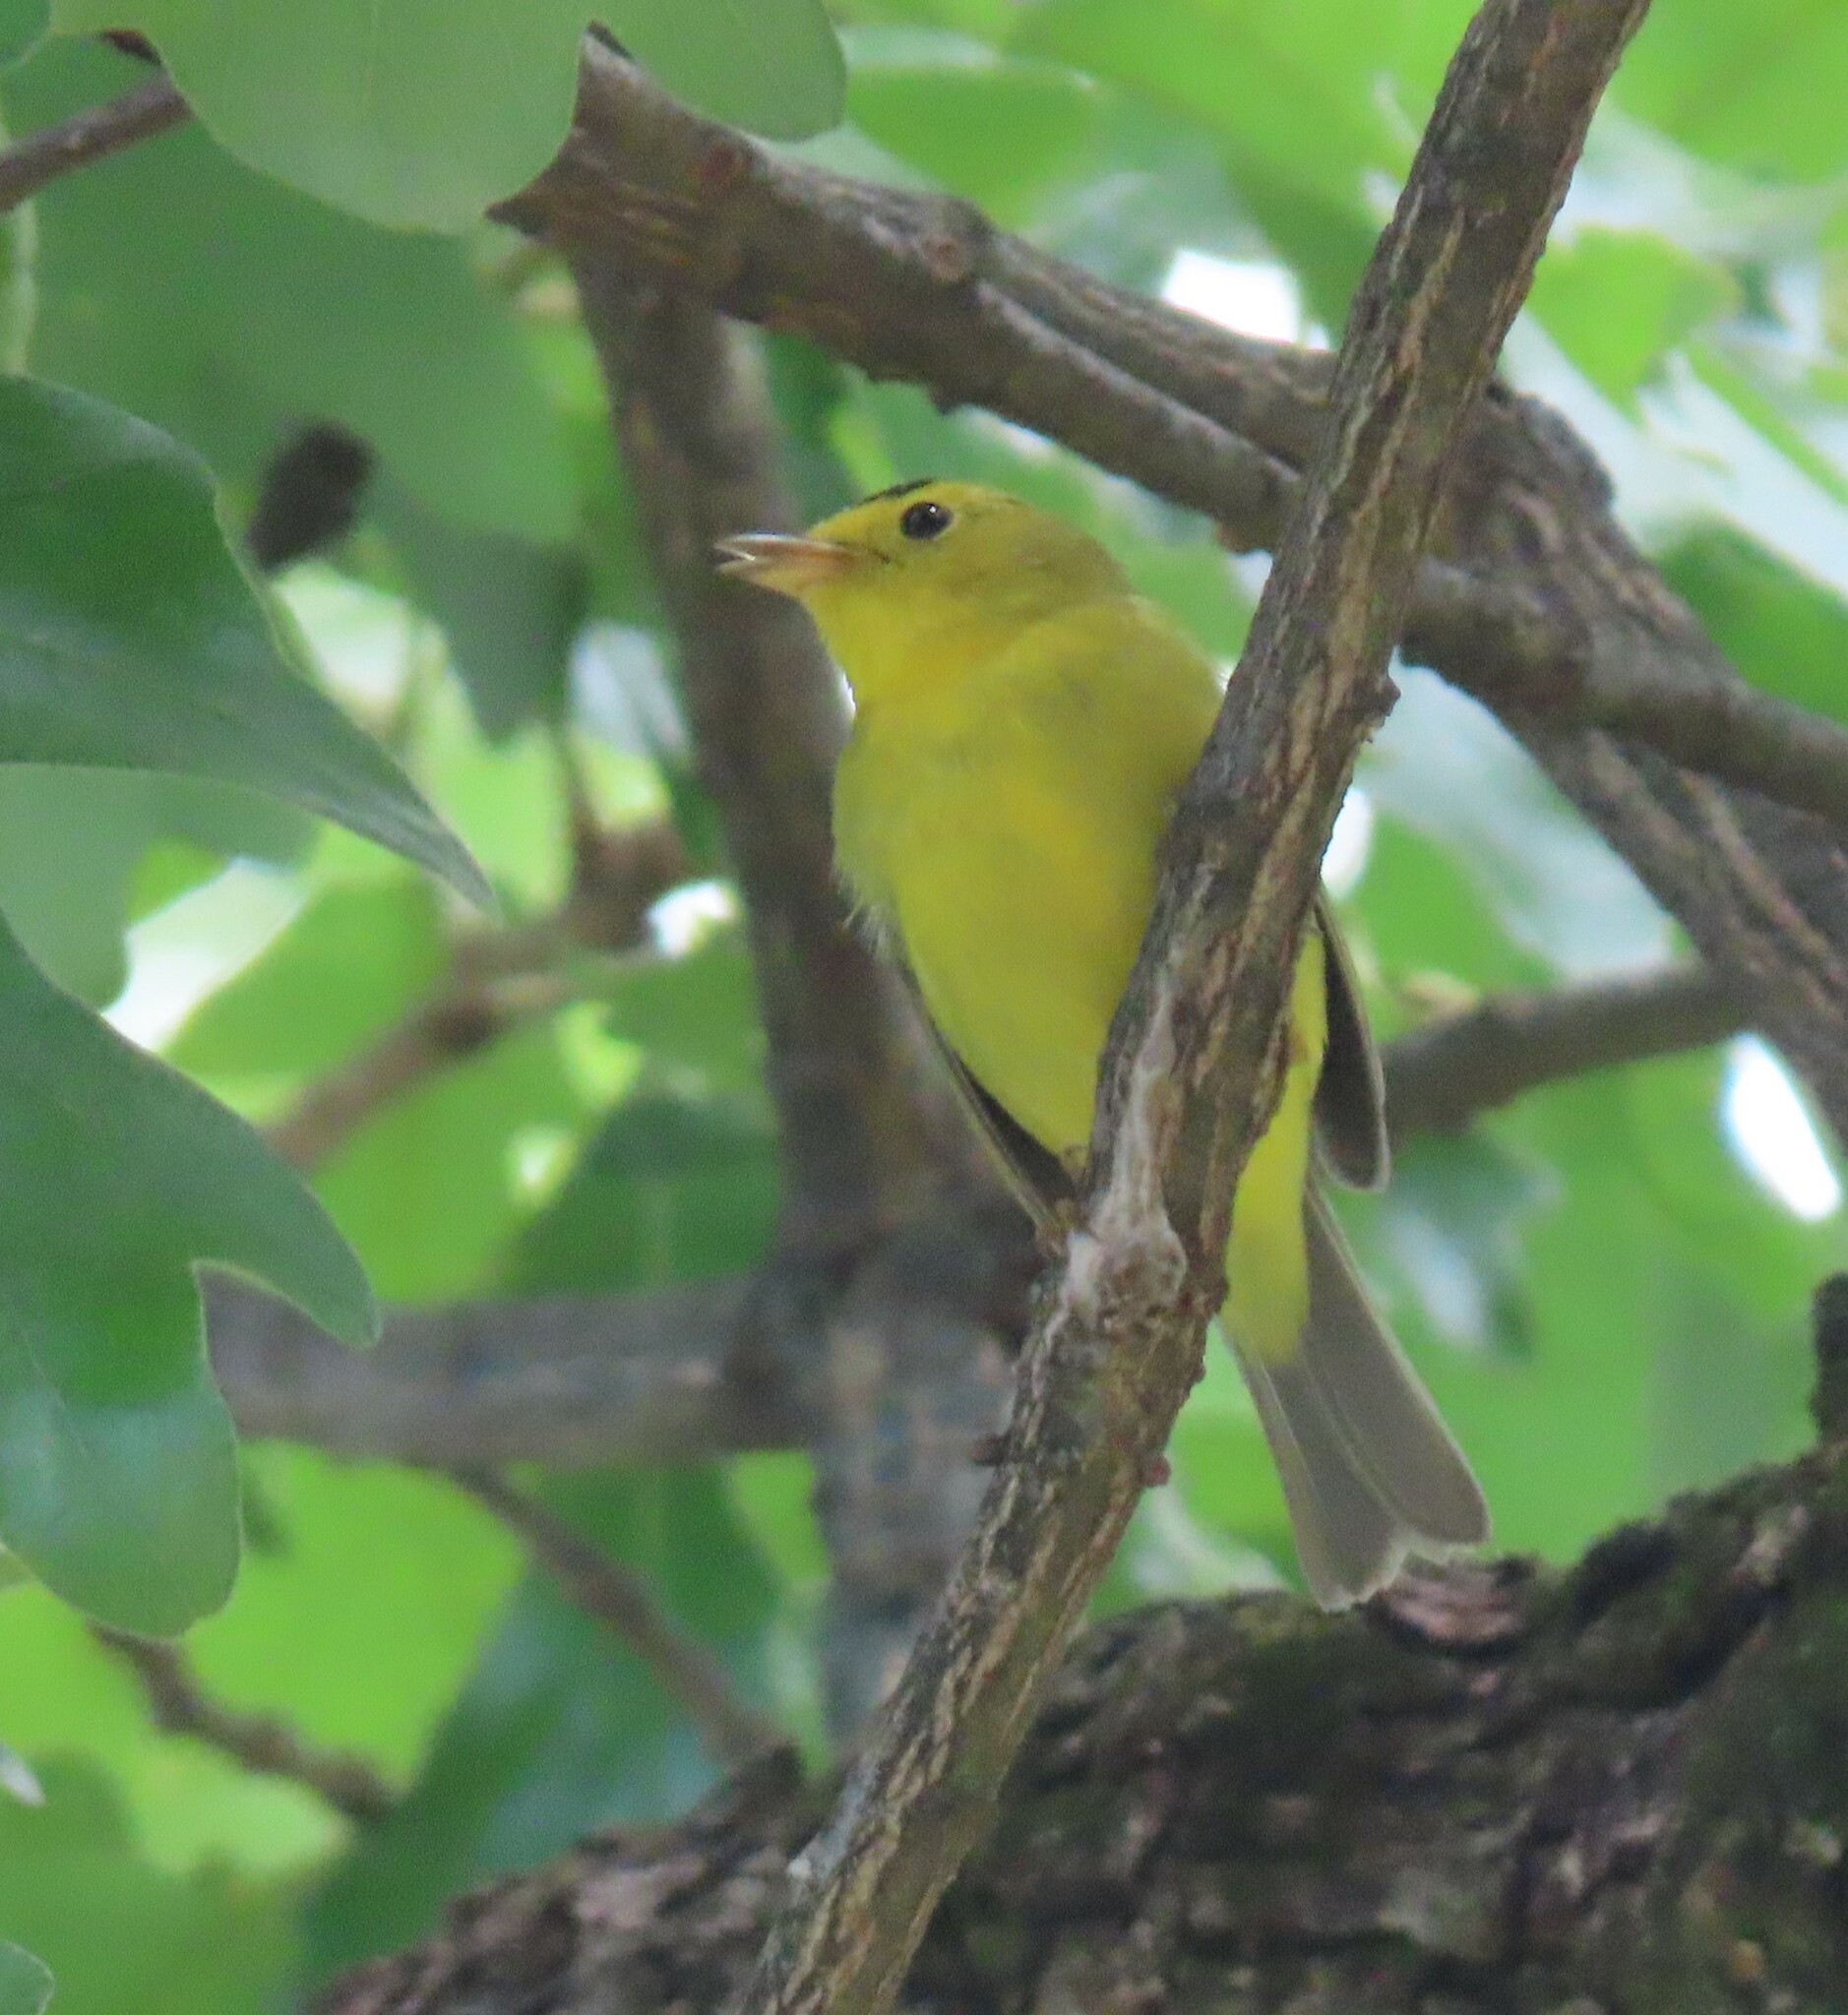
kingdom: Animalia
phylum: Chordata
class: Aves
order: Passeriformes
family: Parulidae
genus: Cardellina
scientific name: Cardellina pusilla
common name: Wilson's warbler
